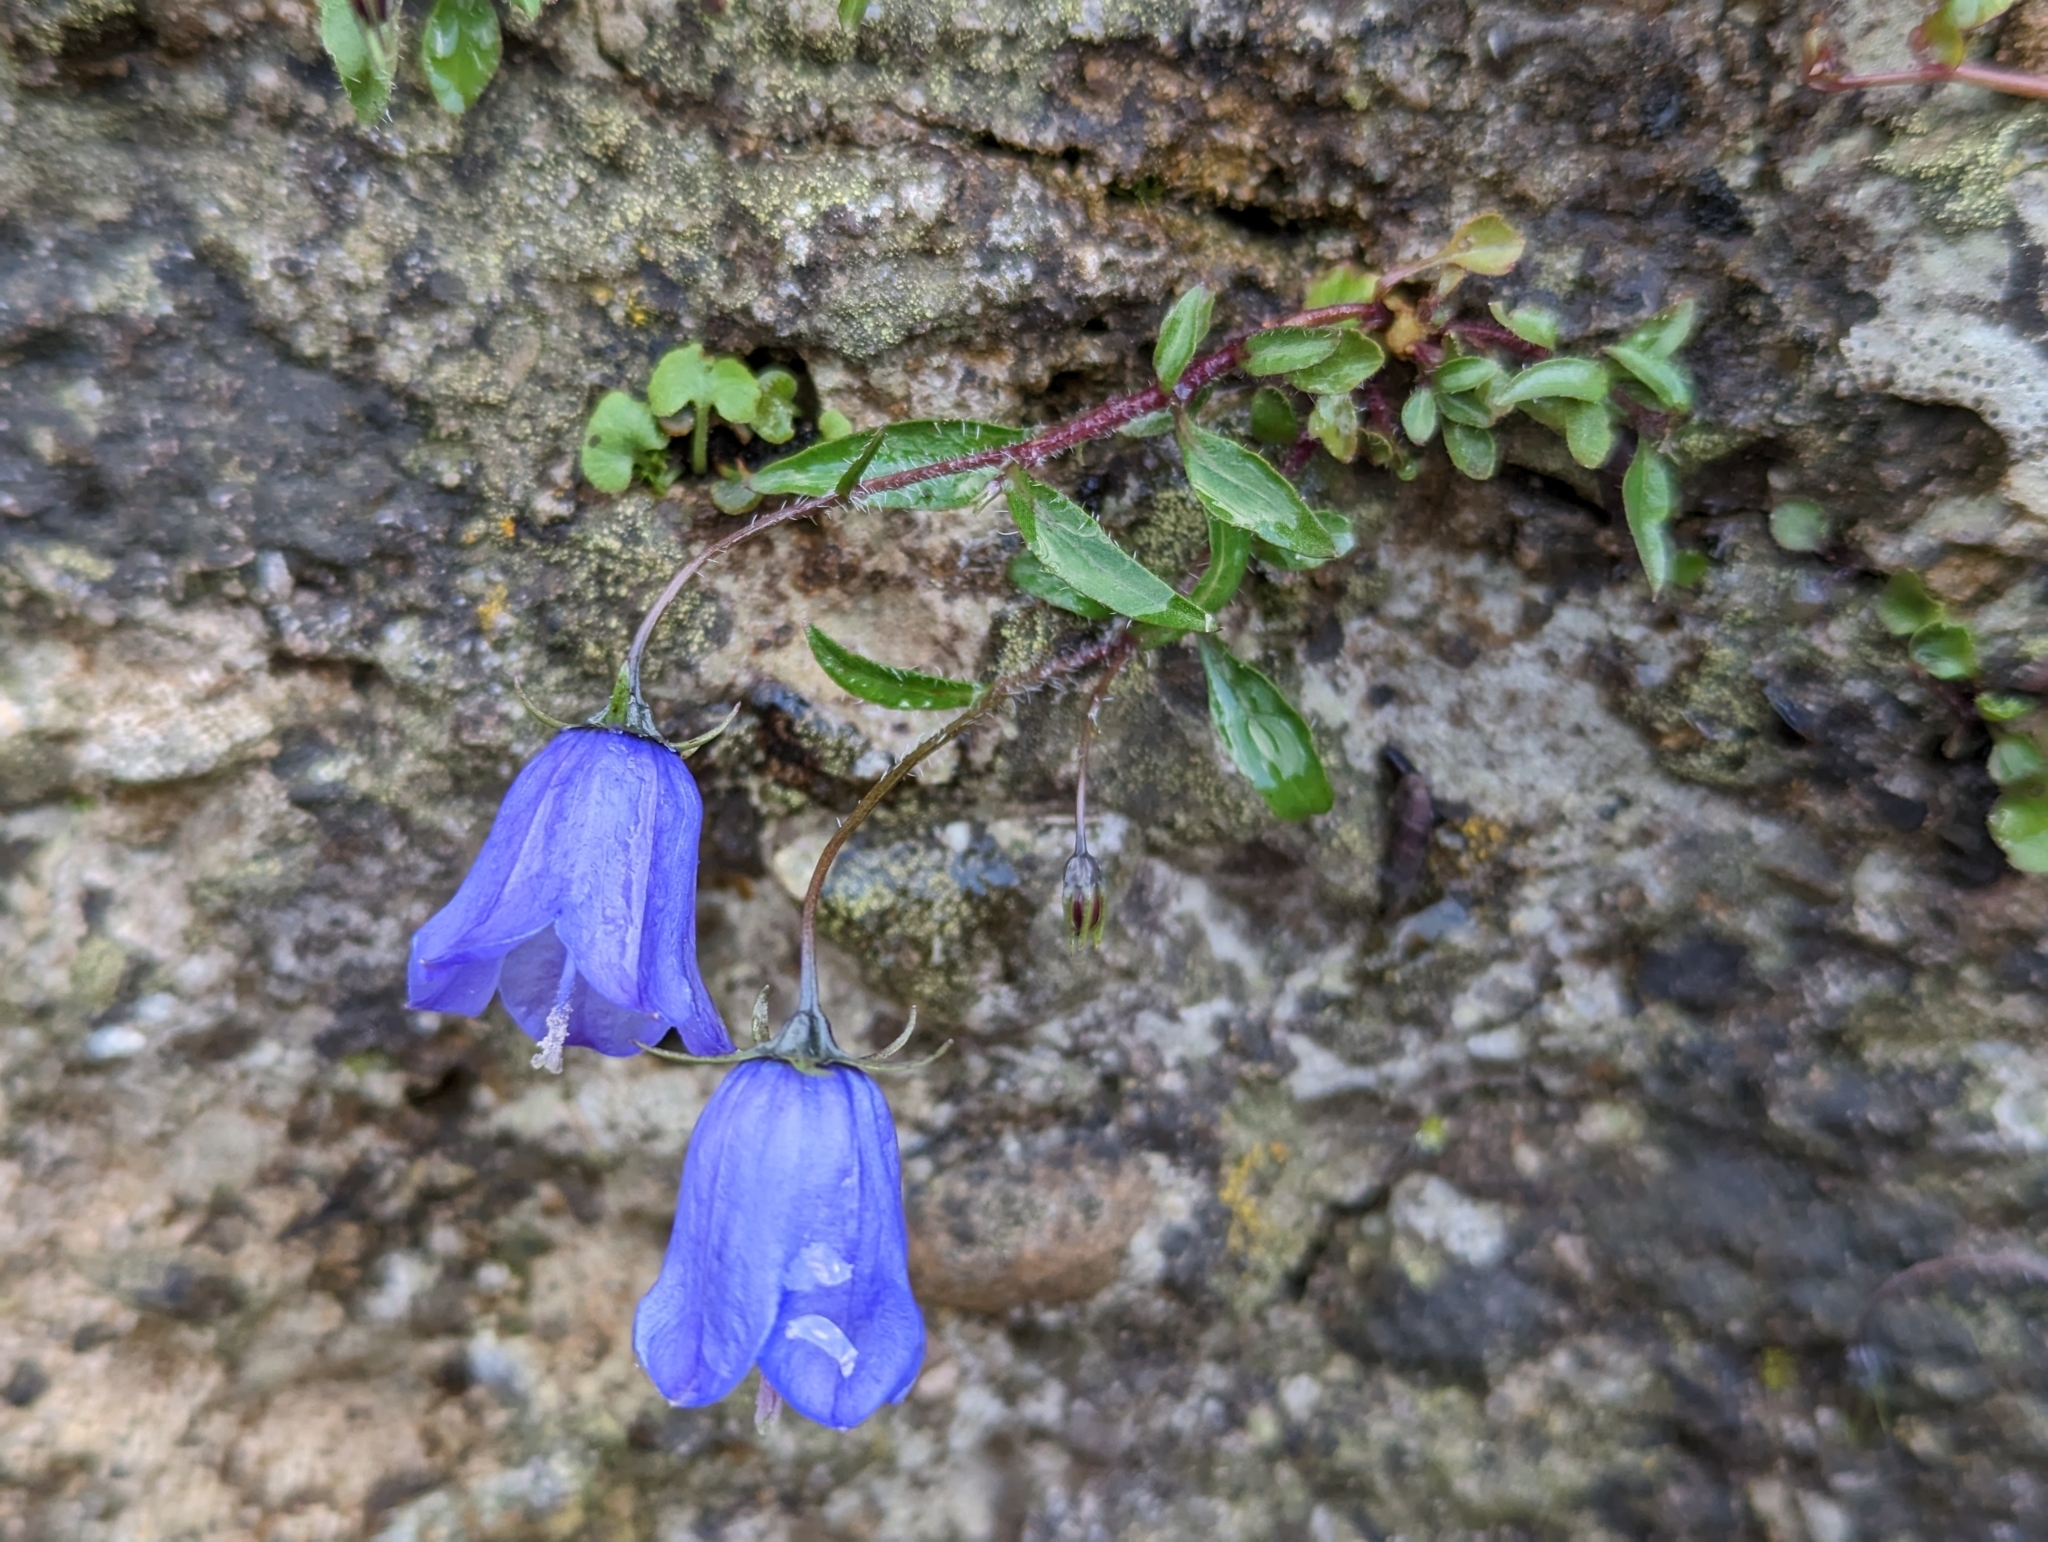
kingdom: Plantae
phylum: Tracheophyta
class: Magnoliopsida
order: Asterales
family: Campanulaceae
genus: Campanula
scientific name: Campanula cochleariifolia
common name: Fairies'-thimbles
